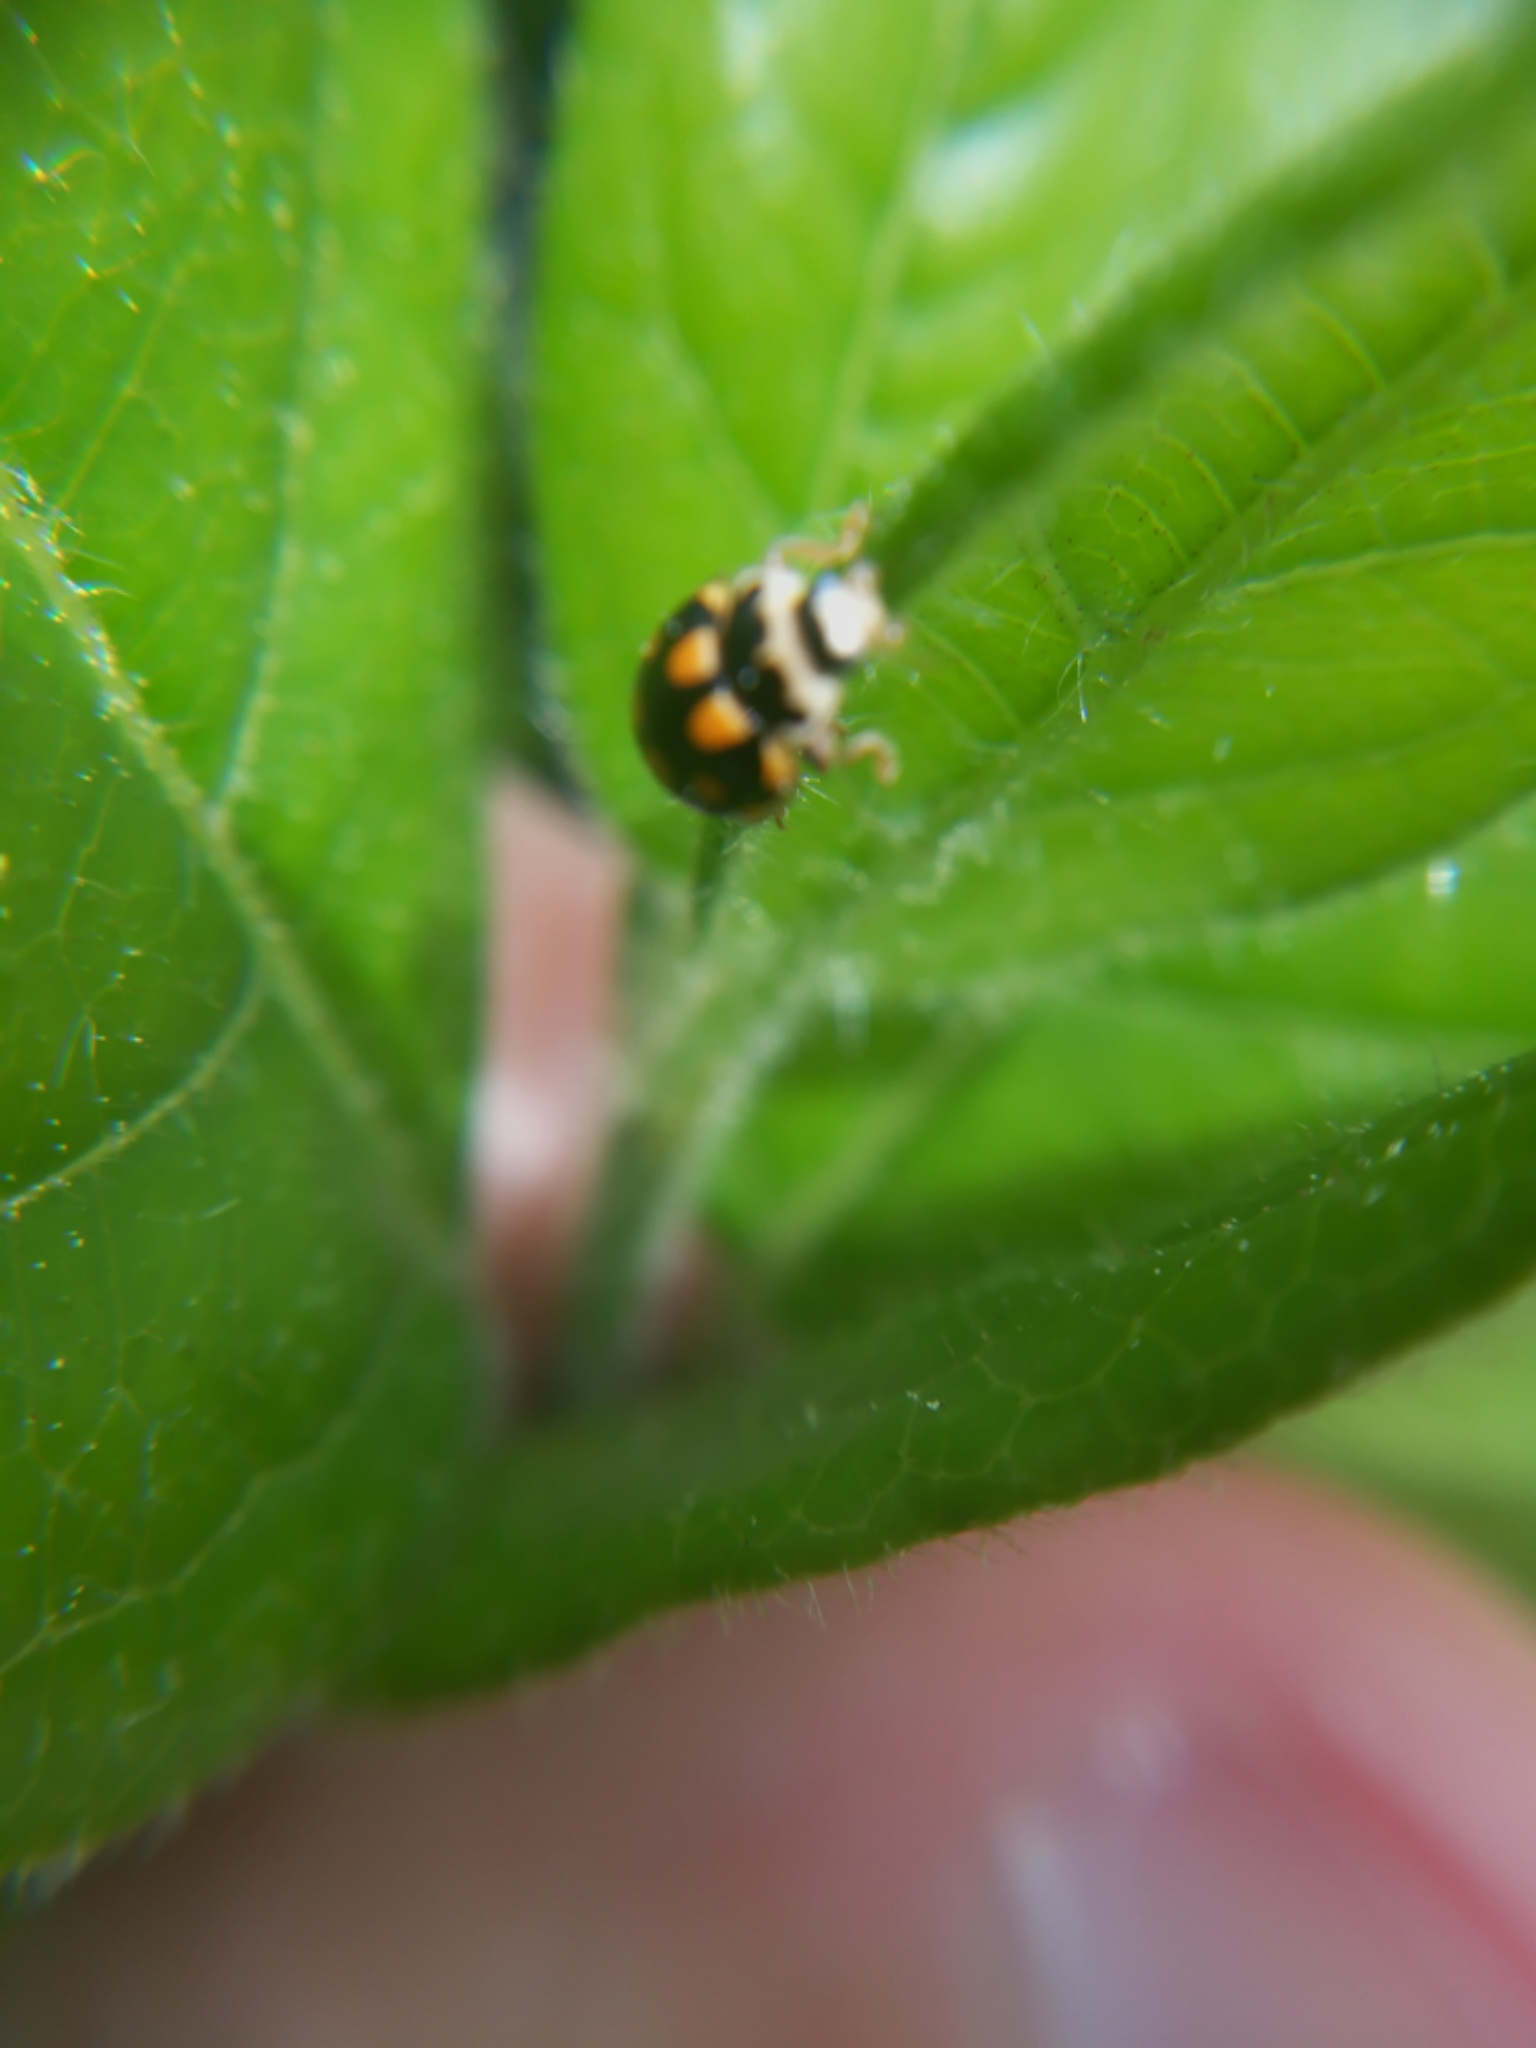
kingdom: Animalia
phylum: Arthropoda
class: Insecta
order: Coleoptera
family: Coccinellidae
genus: Propylaea
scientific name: Propylaea quatuordecimpunctata
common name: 14-spotted ladybird beetle
